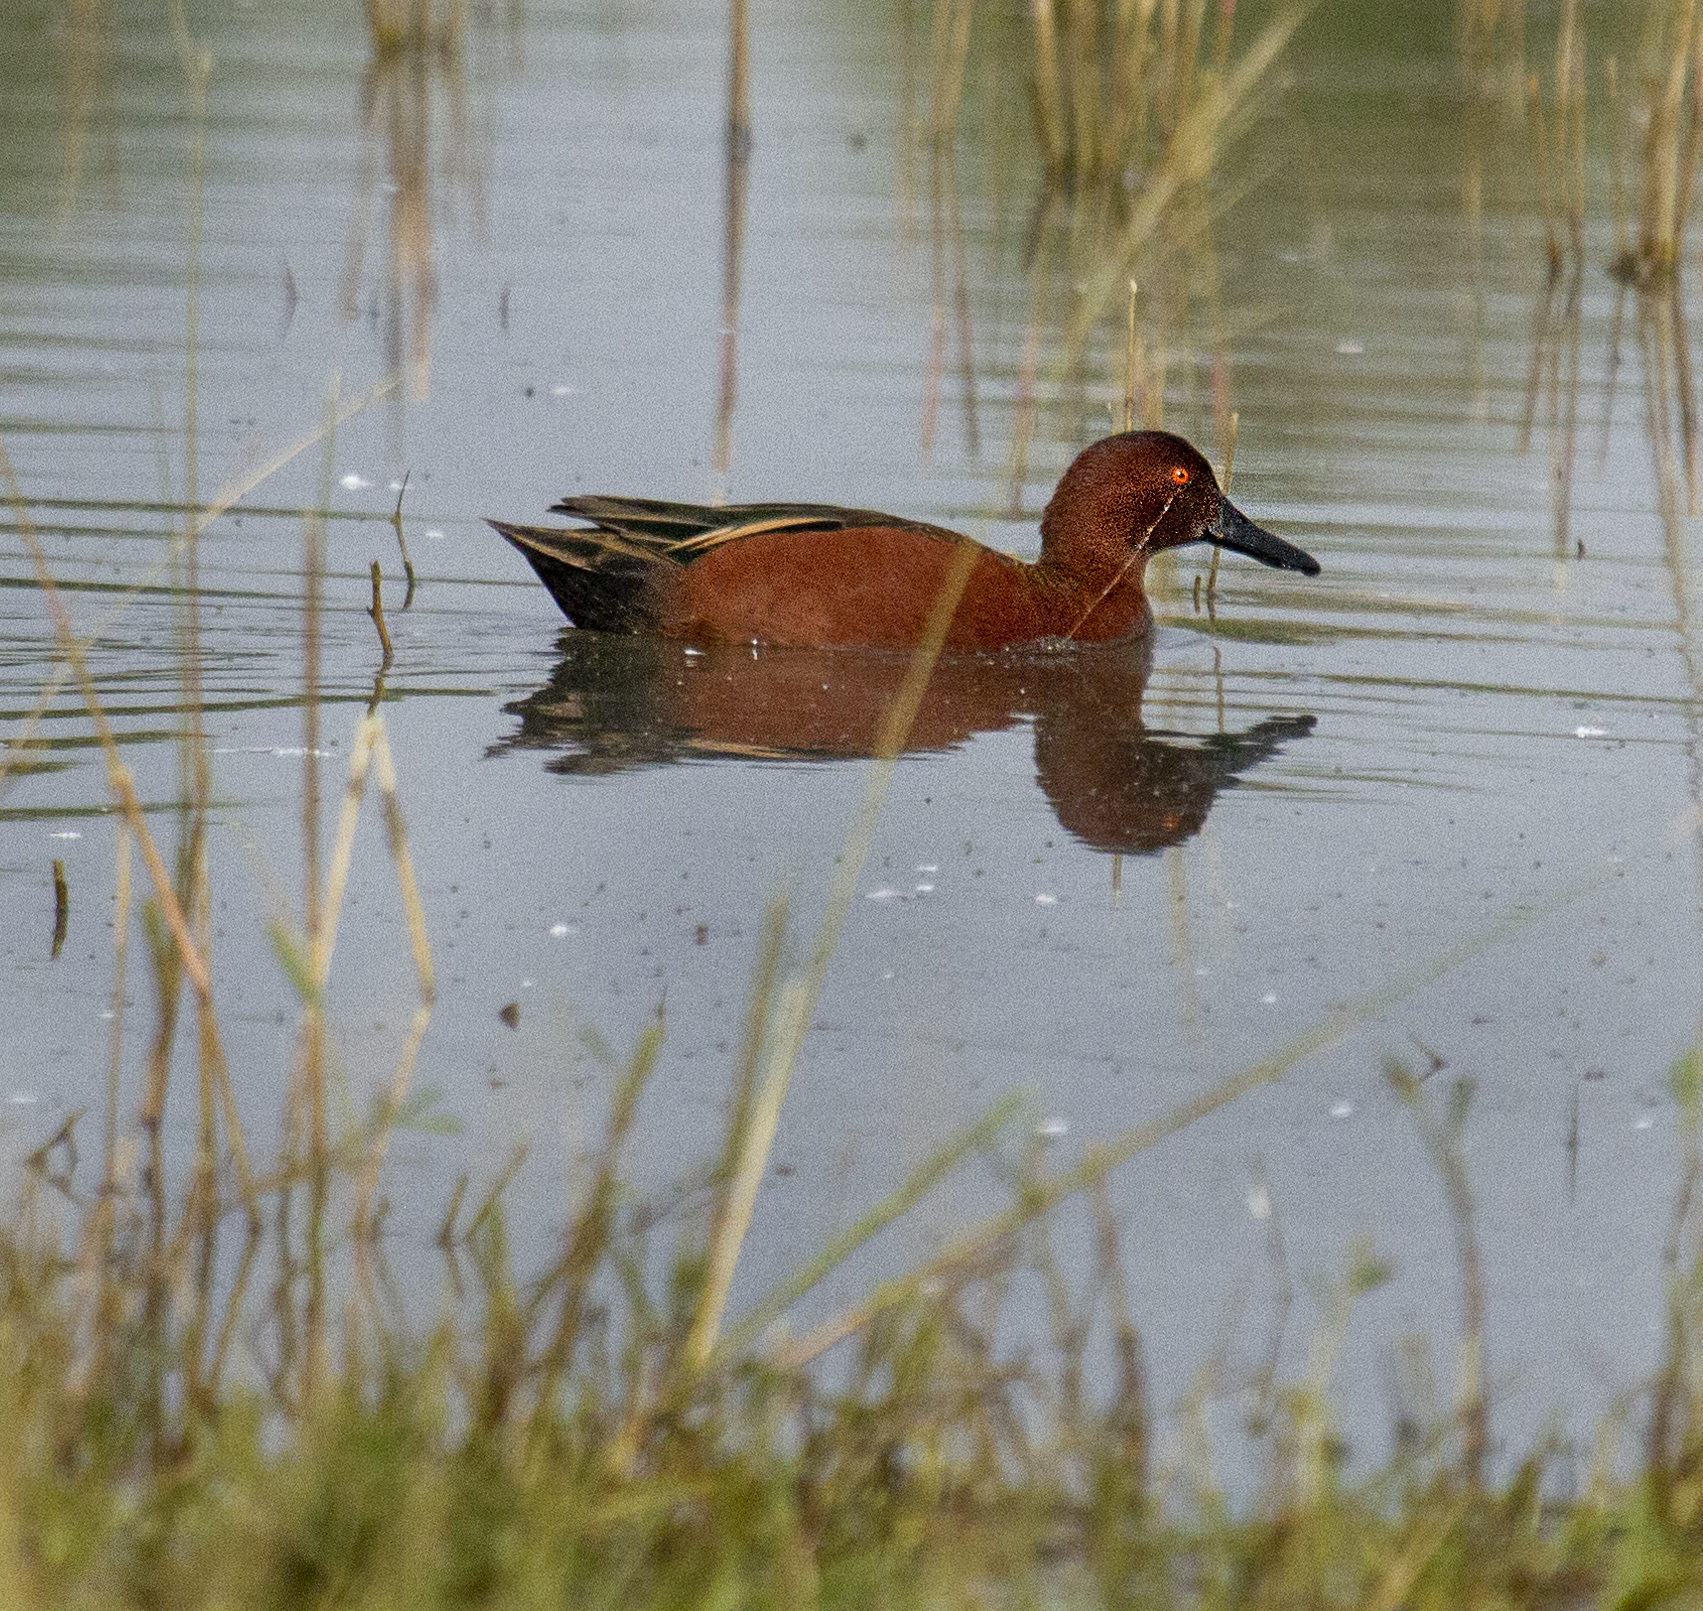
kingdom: Animalia
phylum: Chordata
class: Aves
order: Anseriformes
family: Anatidae
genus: Spatula
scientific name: Spatula cyanoptera
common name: Cinnamon teal
